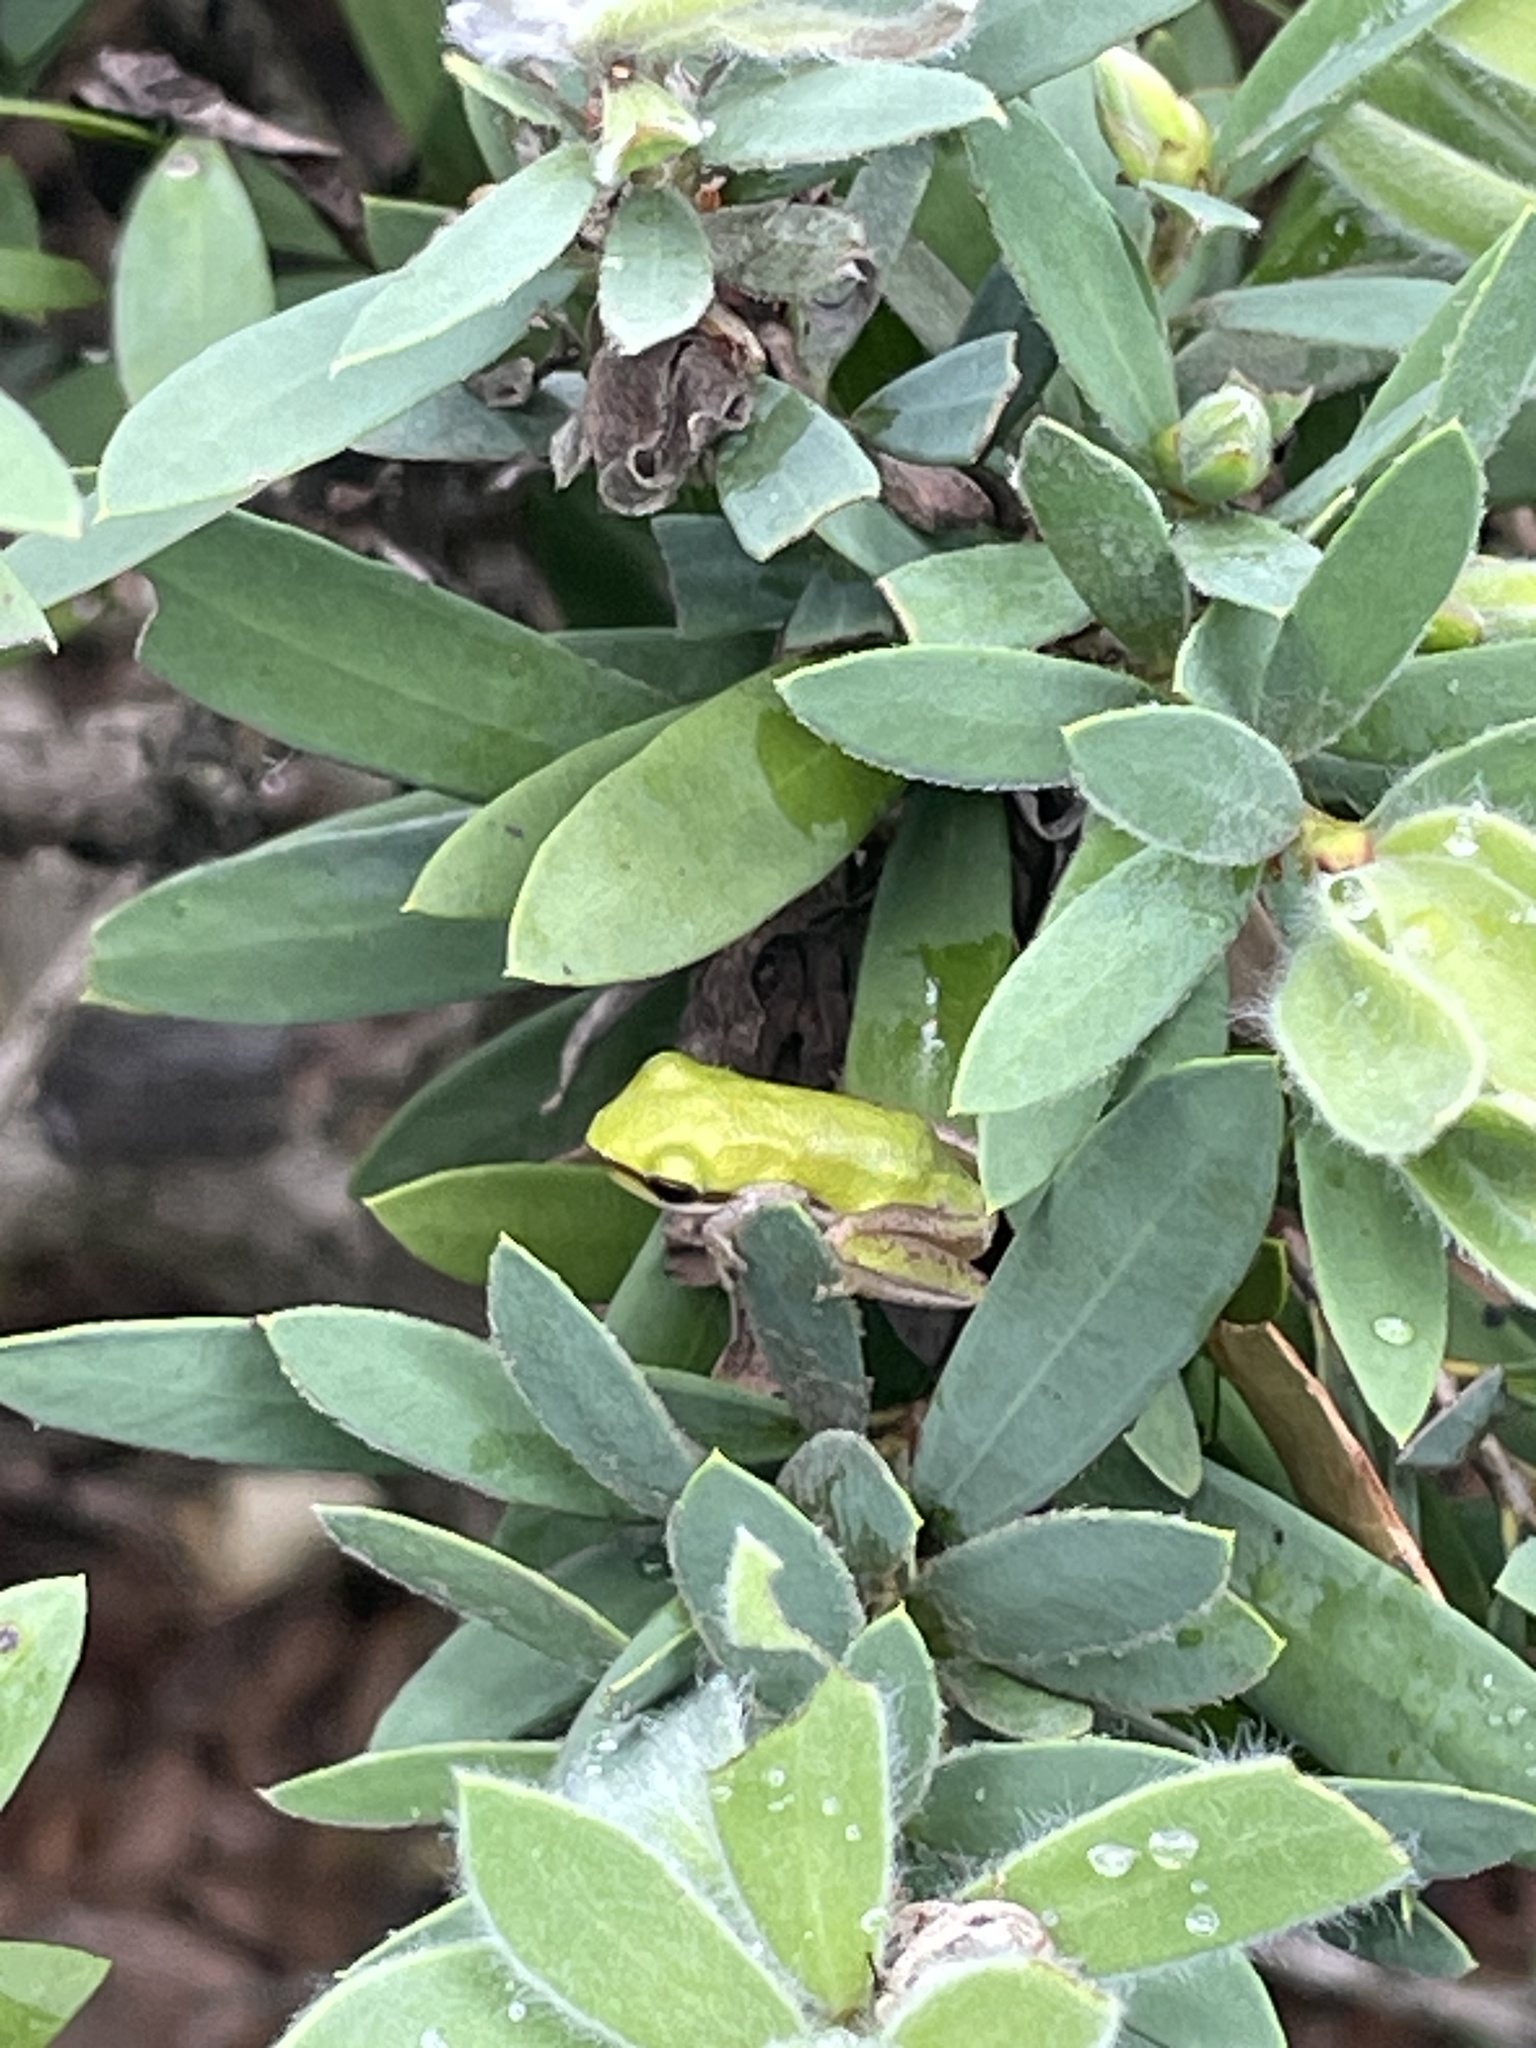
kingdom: Animalia
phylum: Chordata
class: Amphibia
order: Anura
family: Pelodryadidae
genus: Litoria
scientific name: Litoria fallax
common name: Eastern dwarf treefrog
